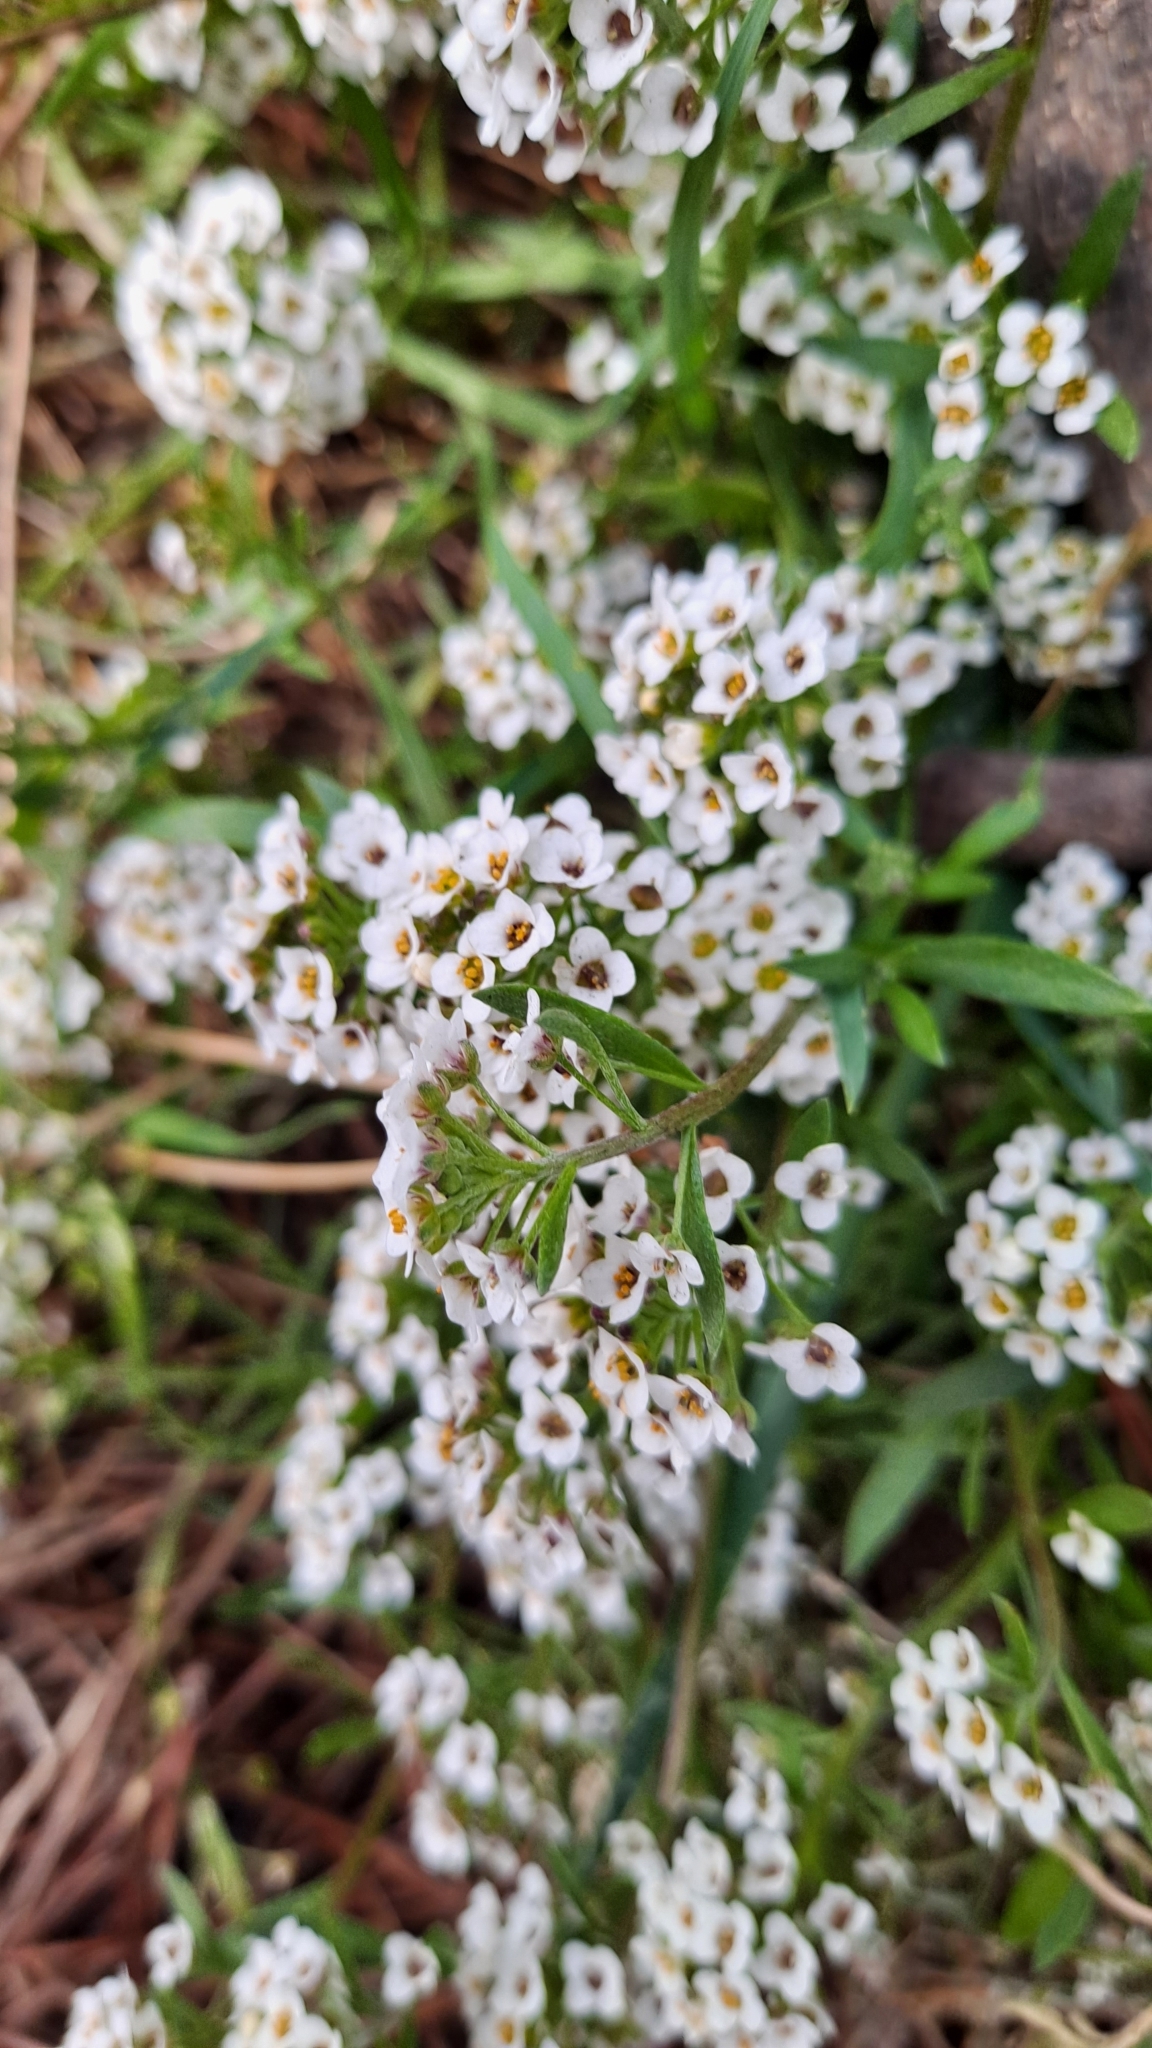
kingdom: Plantae
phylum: Tracheophyta
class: Magnoliopsida
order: Brassicales
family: Brassicaceae
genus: Lobularia
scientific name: Lobularia maritima
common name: Sweet alison
